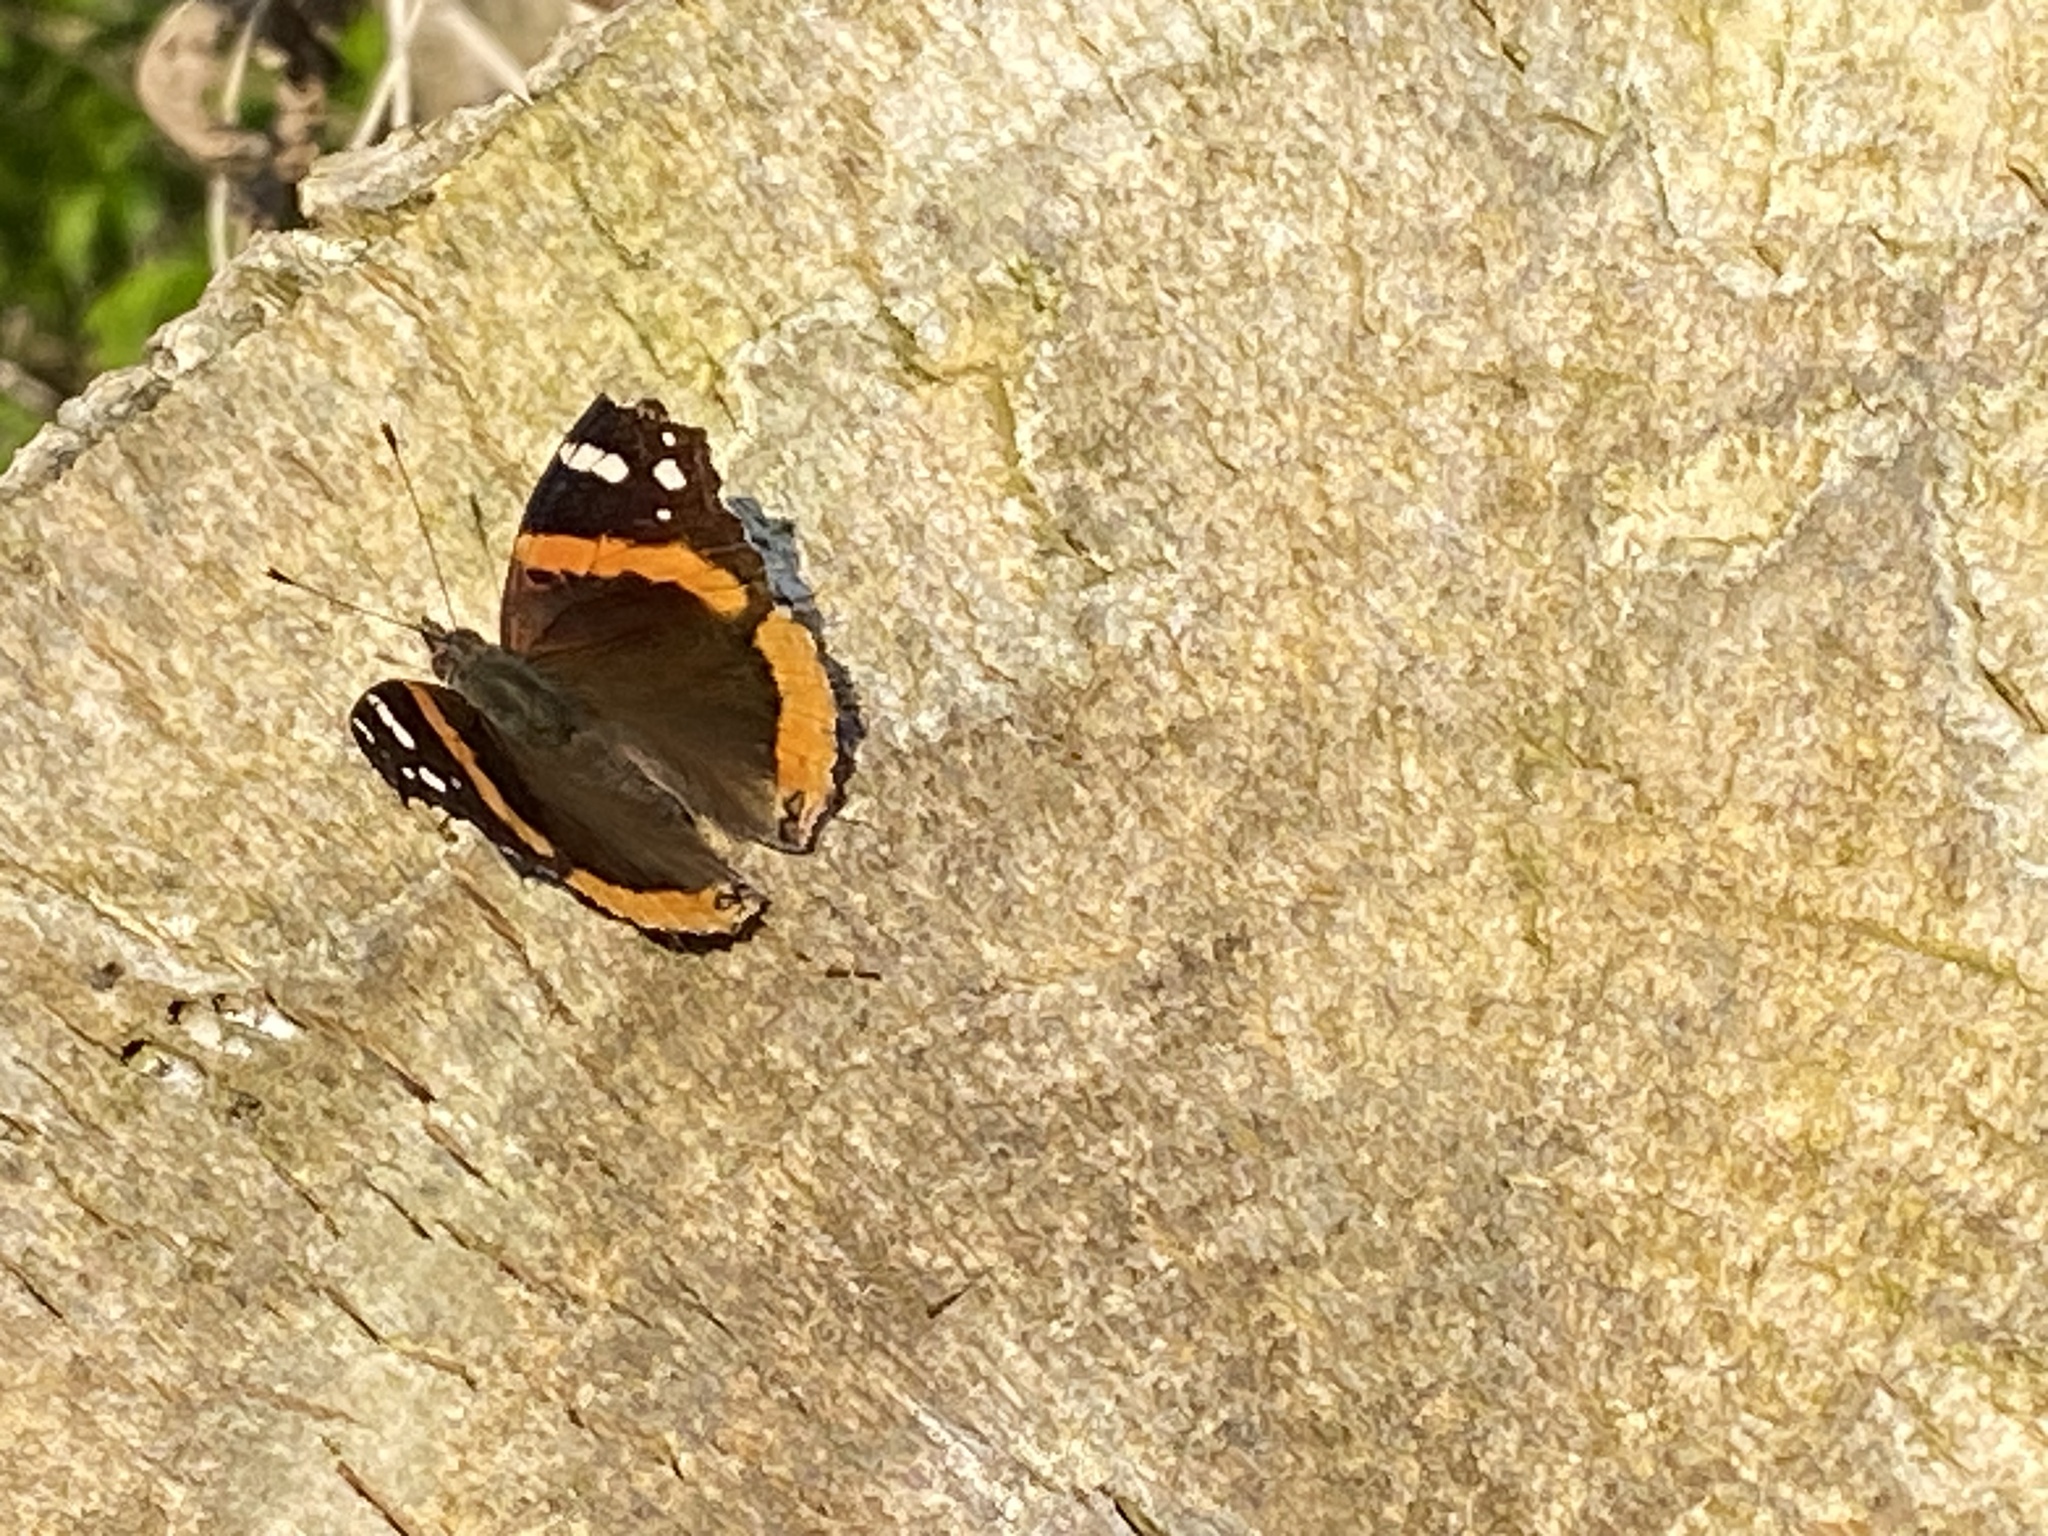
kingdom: Animalia
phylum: Arthropoda
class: Insecta
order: Lepidoptera
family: Nymphalidae
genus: Vanessa
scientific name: Vanessa atalanta
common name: Red admiral
